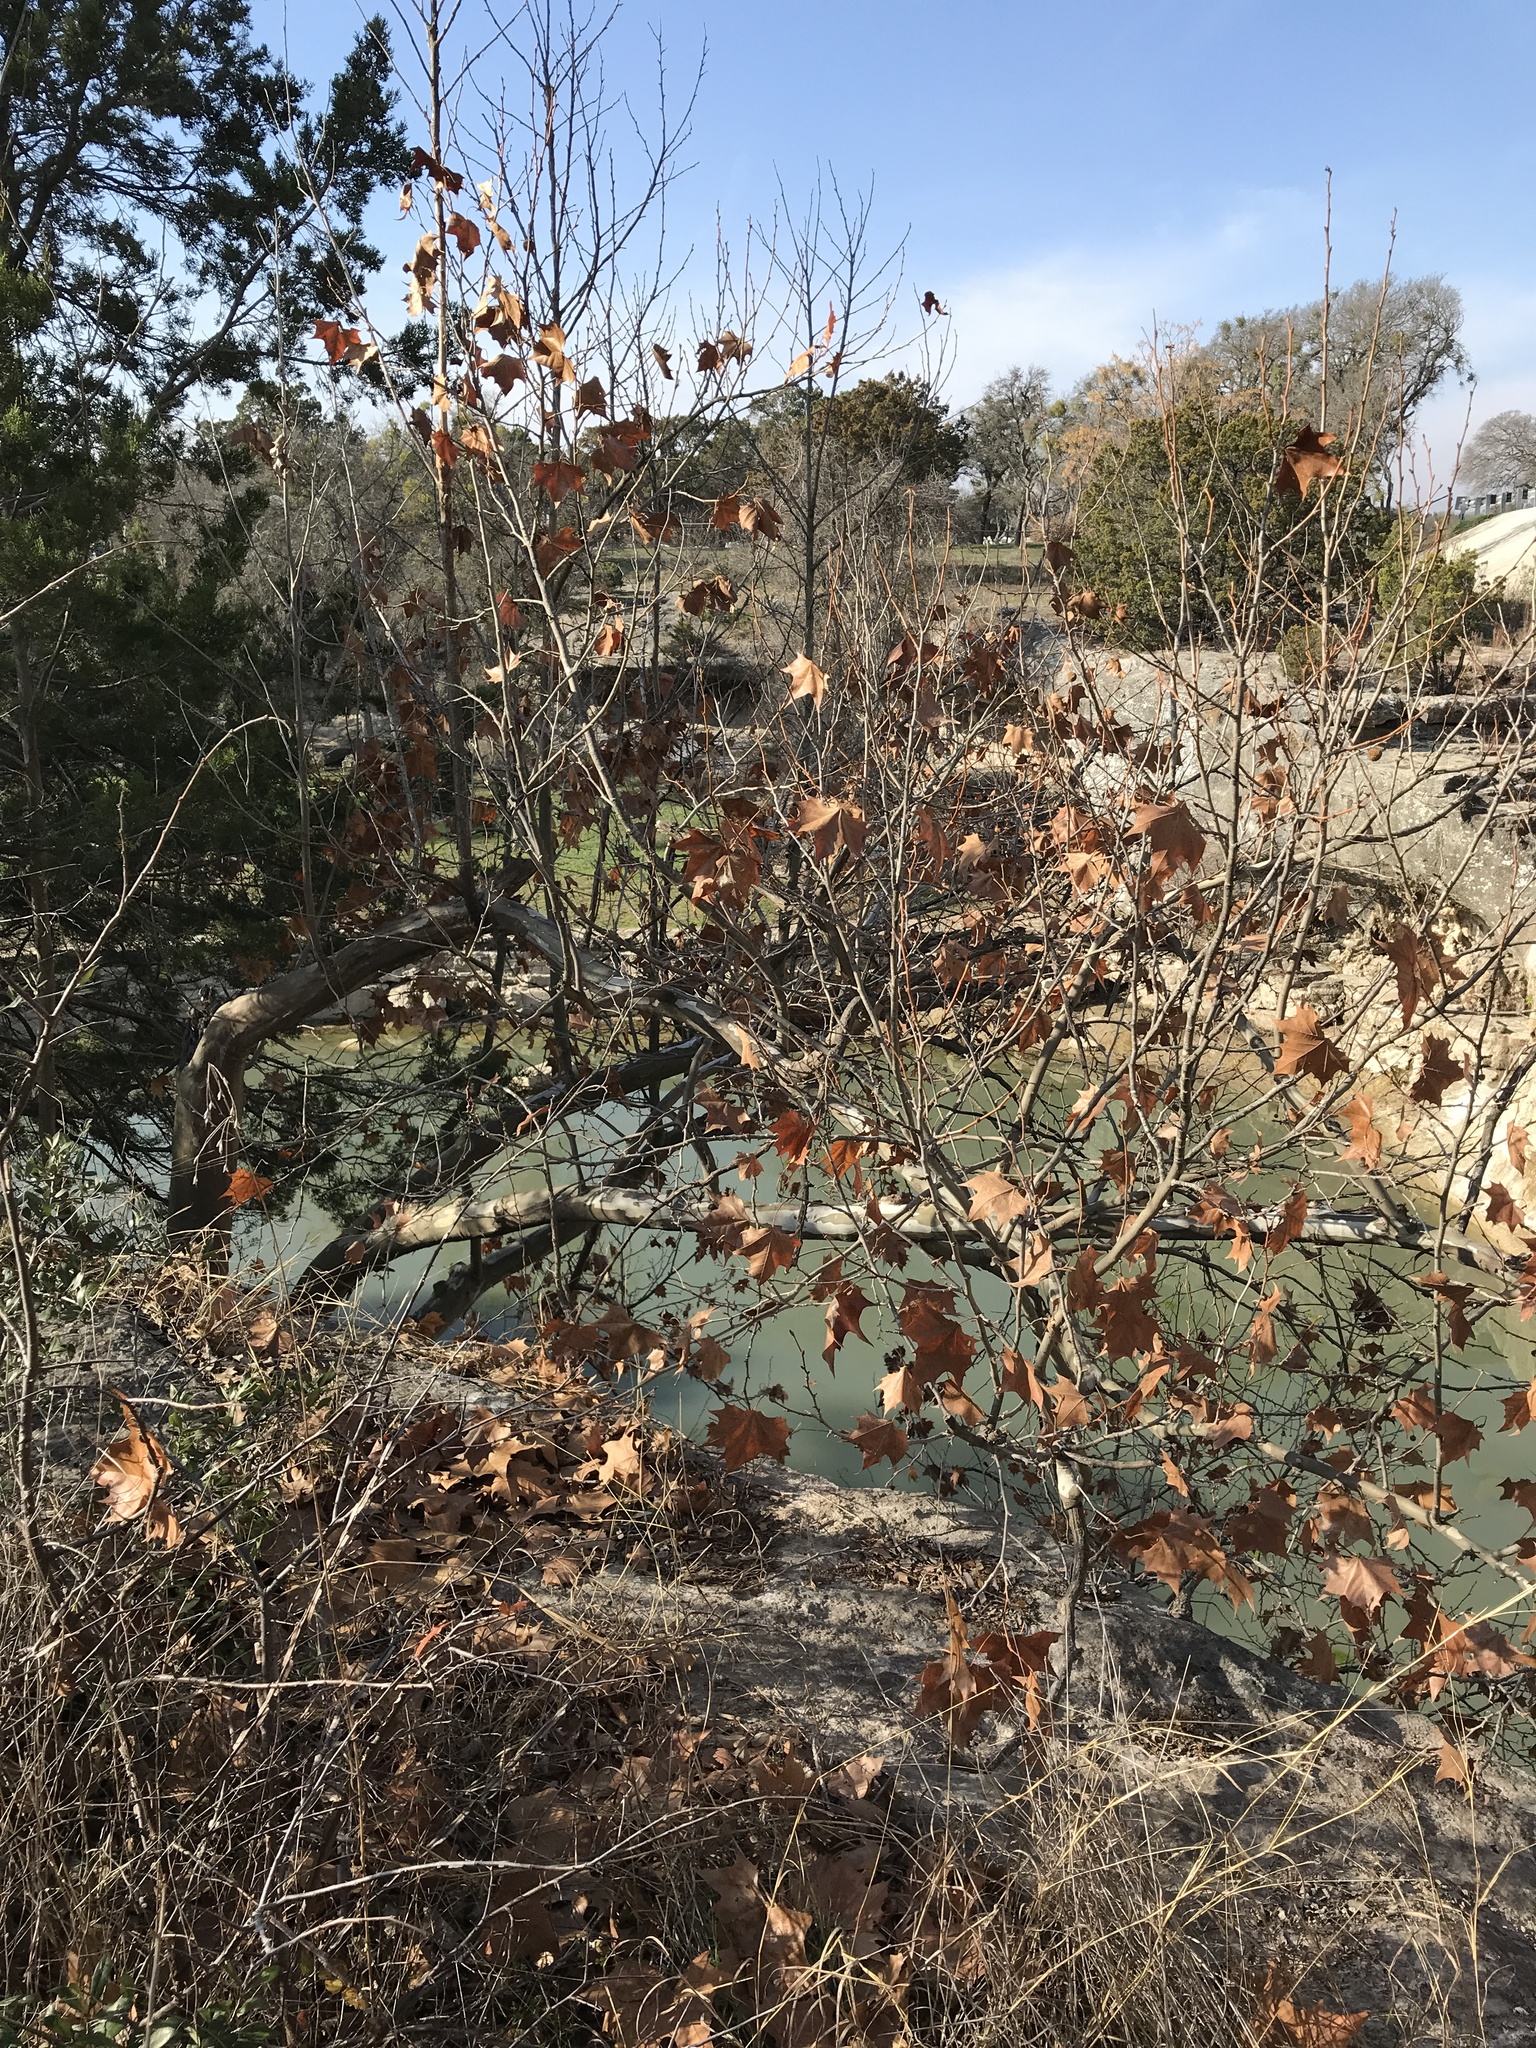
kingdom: Plantae
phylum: Tracheophyta
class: Magnoliopsida
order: Proteales
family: Platanaceae
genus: Platanus
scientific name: Platanus occidentalis
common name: American sycamore
